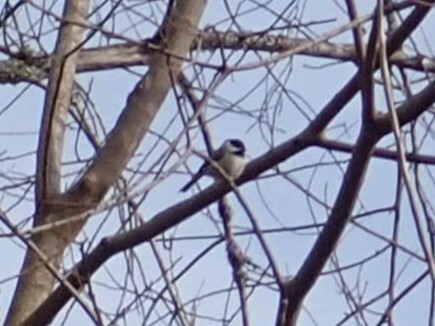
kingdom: Animalia
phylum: Chordata
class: Aves
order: Passeriformes
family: Paridae
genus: Poecile
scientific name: Poecile carolinensis
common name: Carolina chickadee
